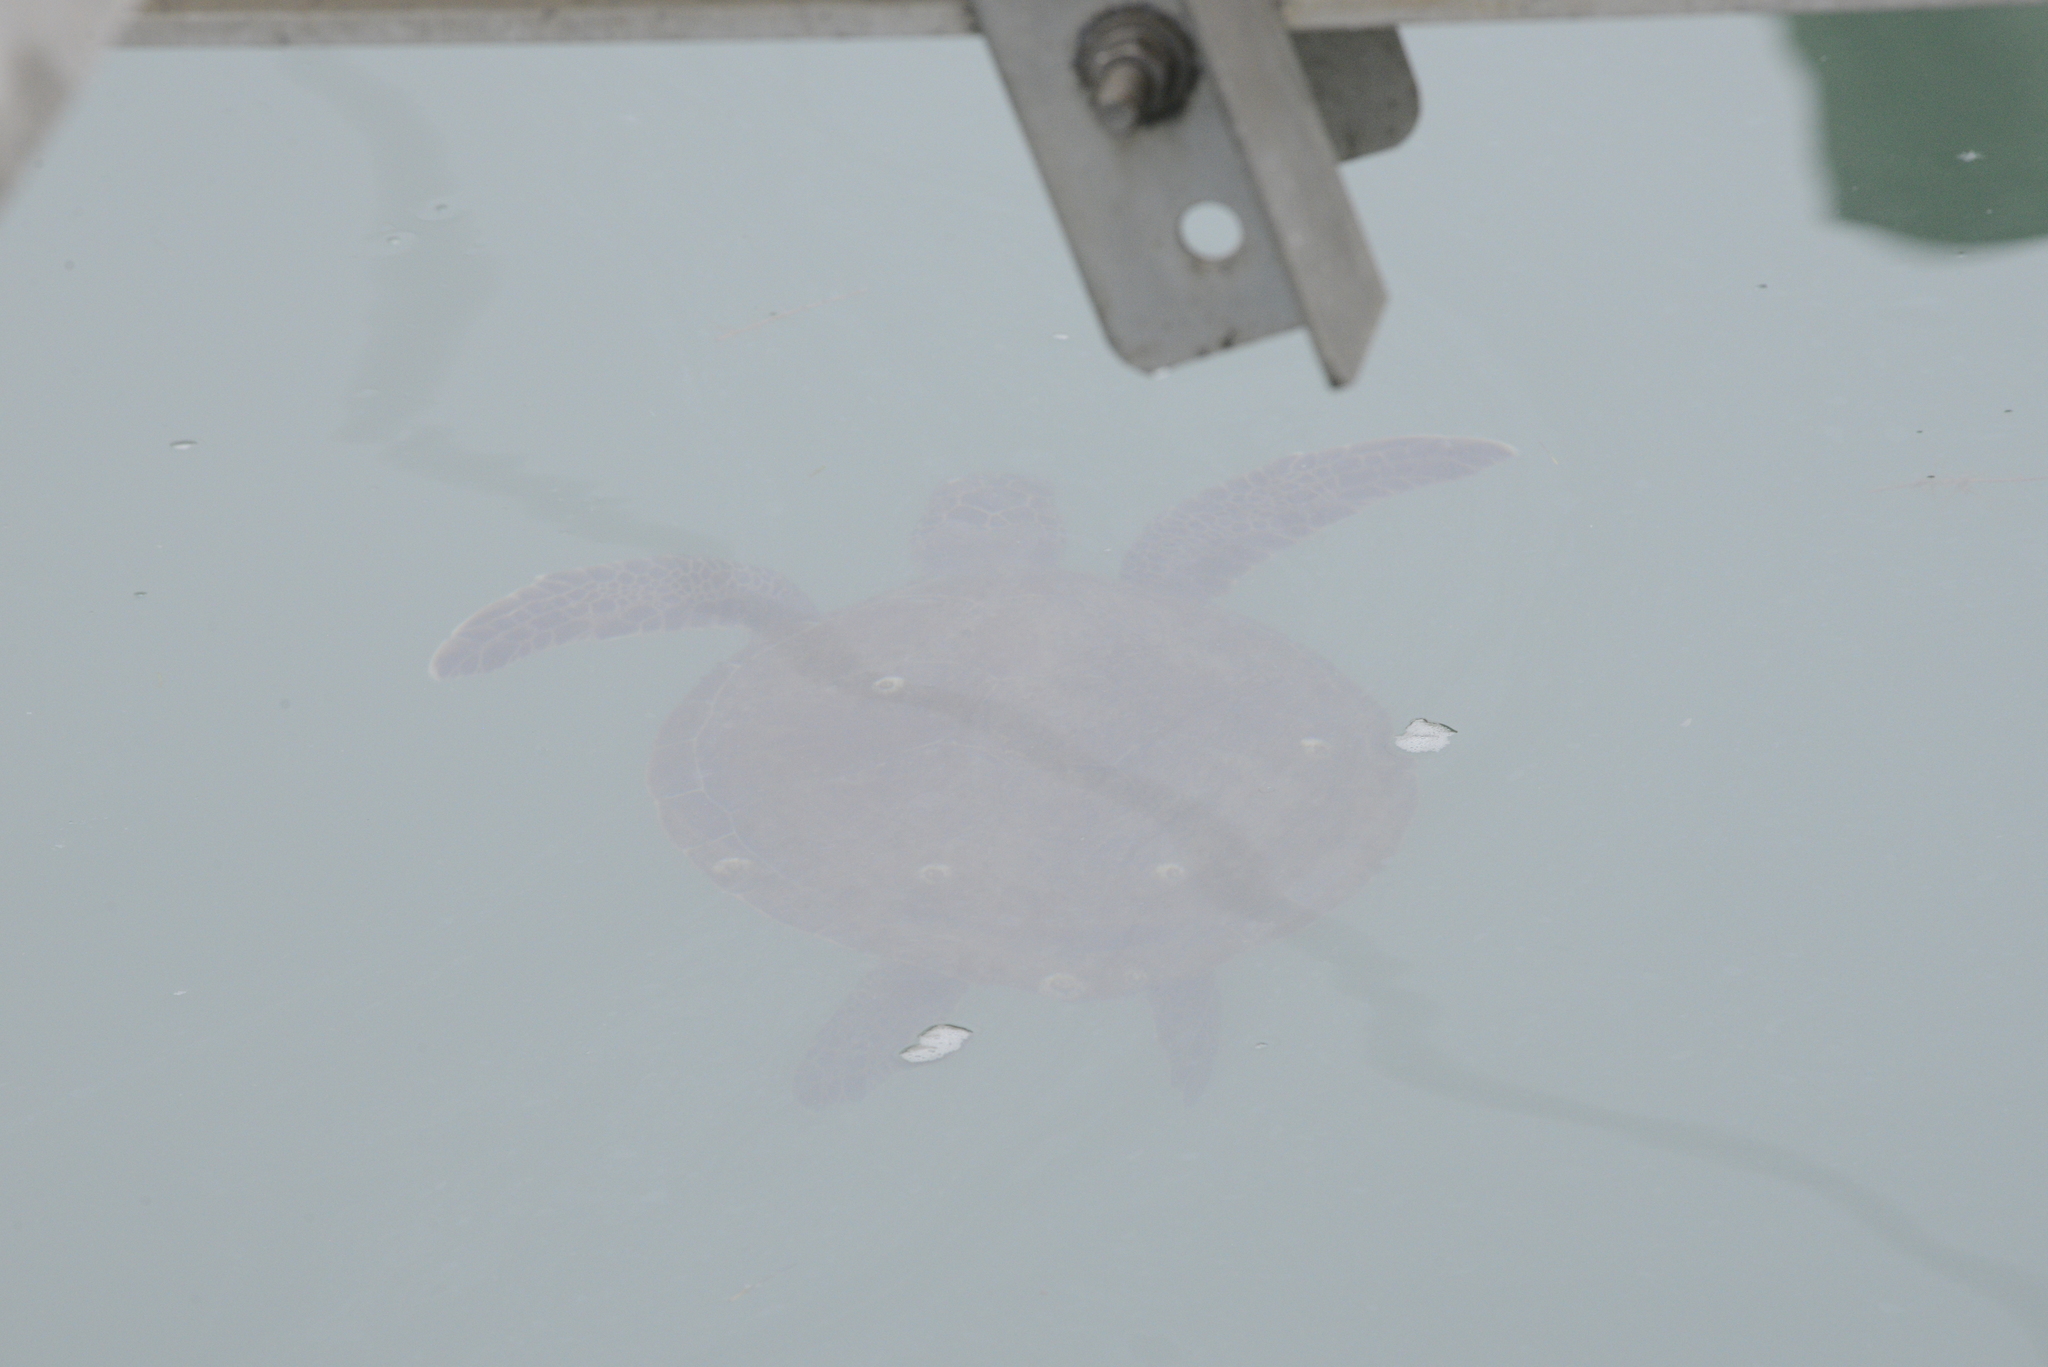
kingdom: Animalia
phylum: Chordata
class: Testudines
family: Cheloniidae
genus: Chelonia
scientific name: Chelonia mydas
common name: Green turtle
